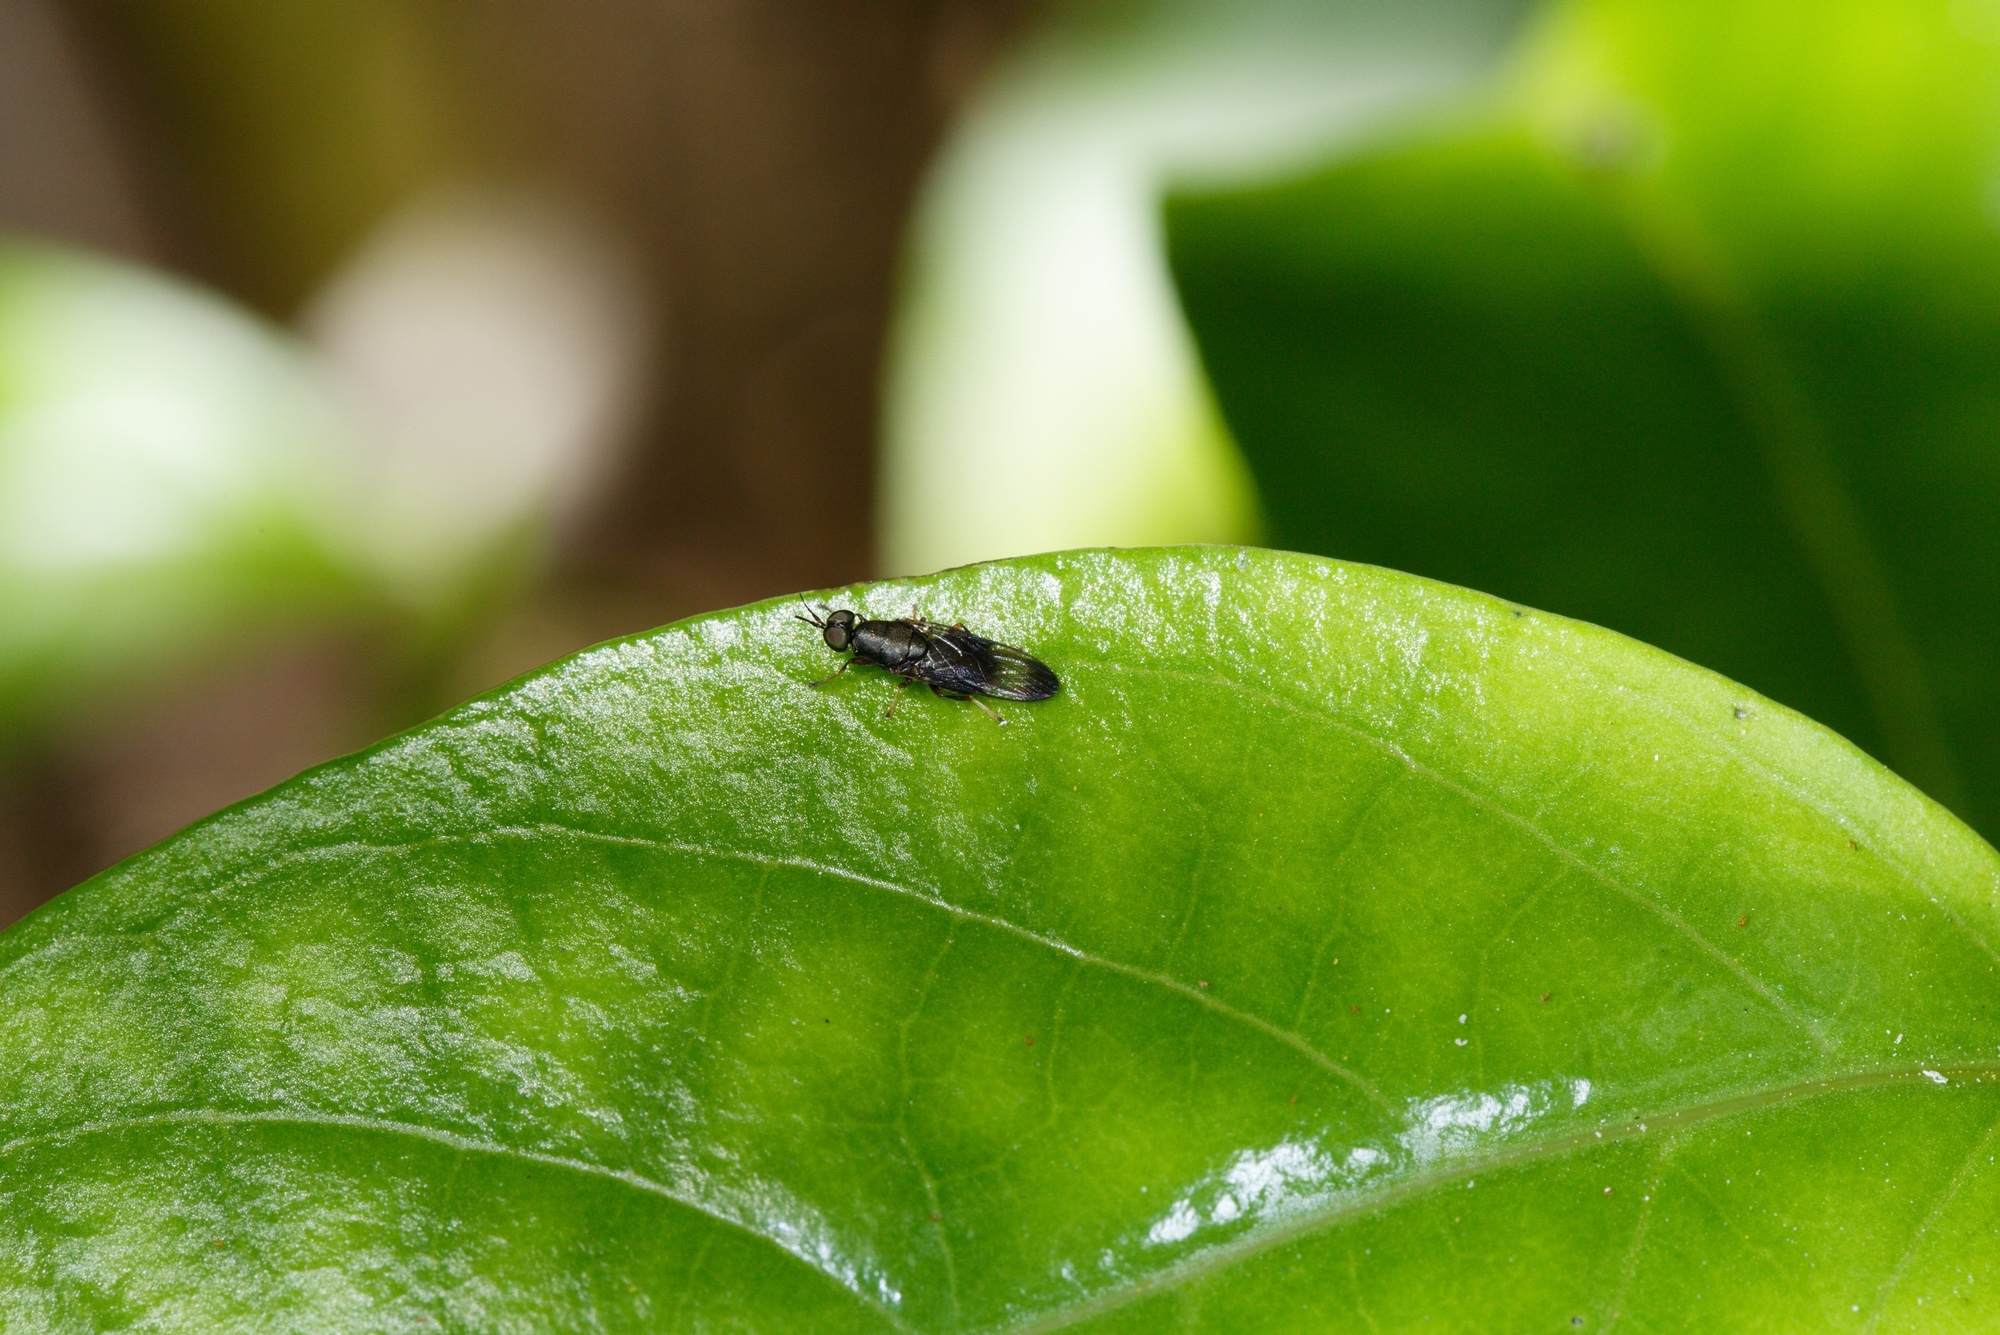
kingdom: Animalia
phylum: Arthropoda
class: Insecta
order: Diptera
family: Stratiomyidae
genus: Dysbiota
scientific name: Dysbiota peregrina
